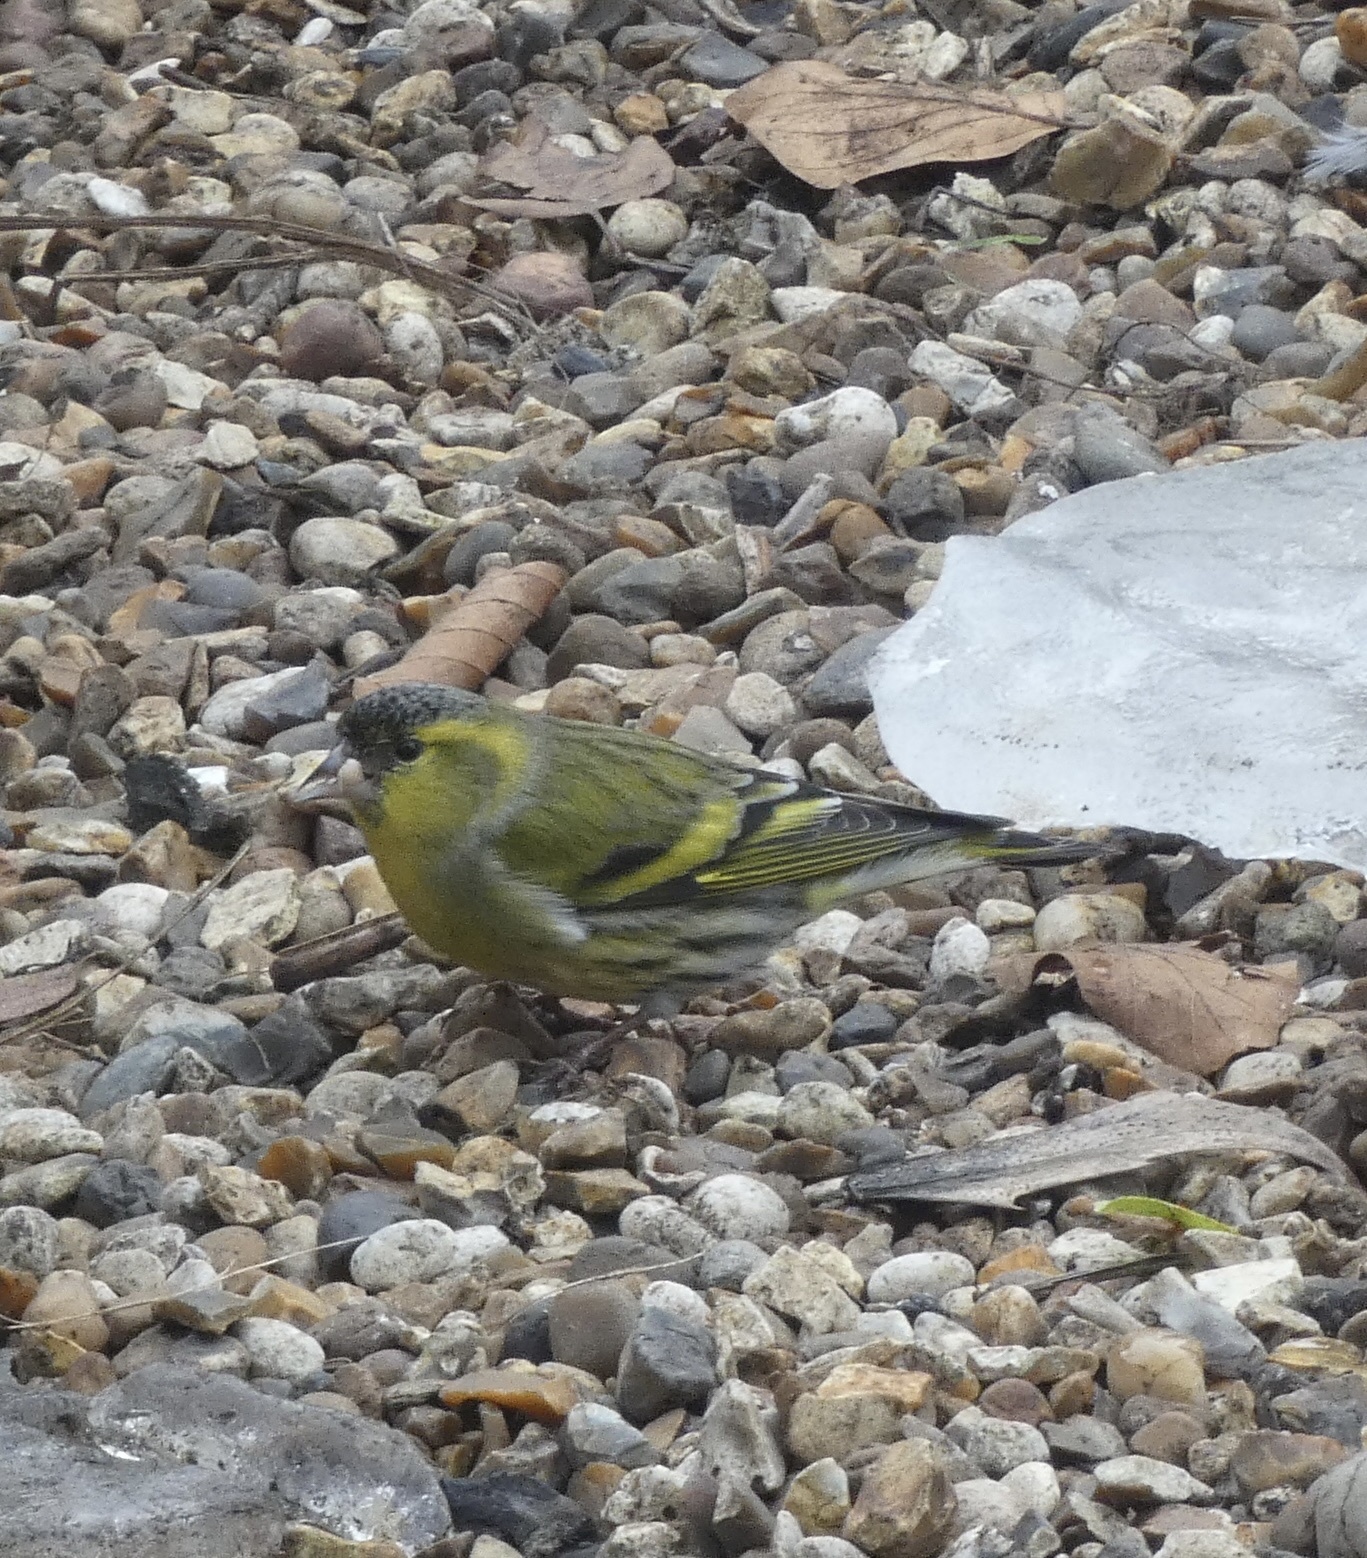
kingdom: Animalia
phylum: Chordata
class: Aves
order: Passeriformes
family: Fringillidae
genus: Spinus
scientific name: Spinus spinus
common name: Eurasian siskin
